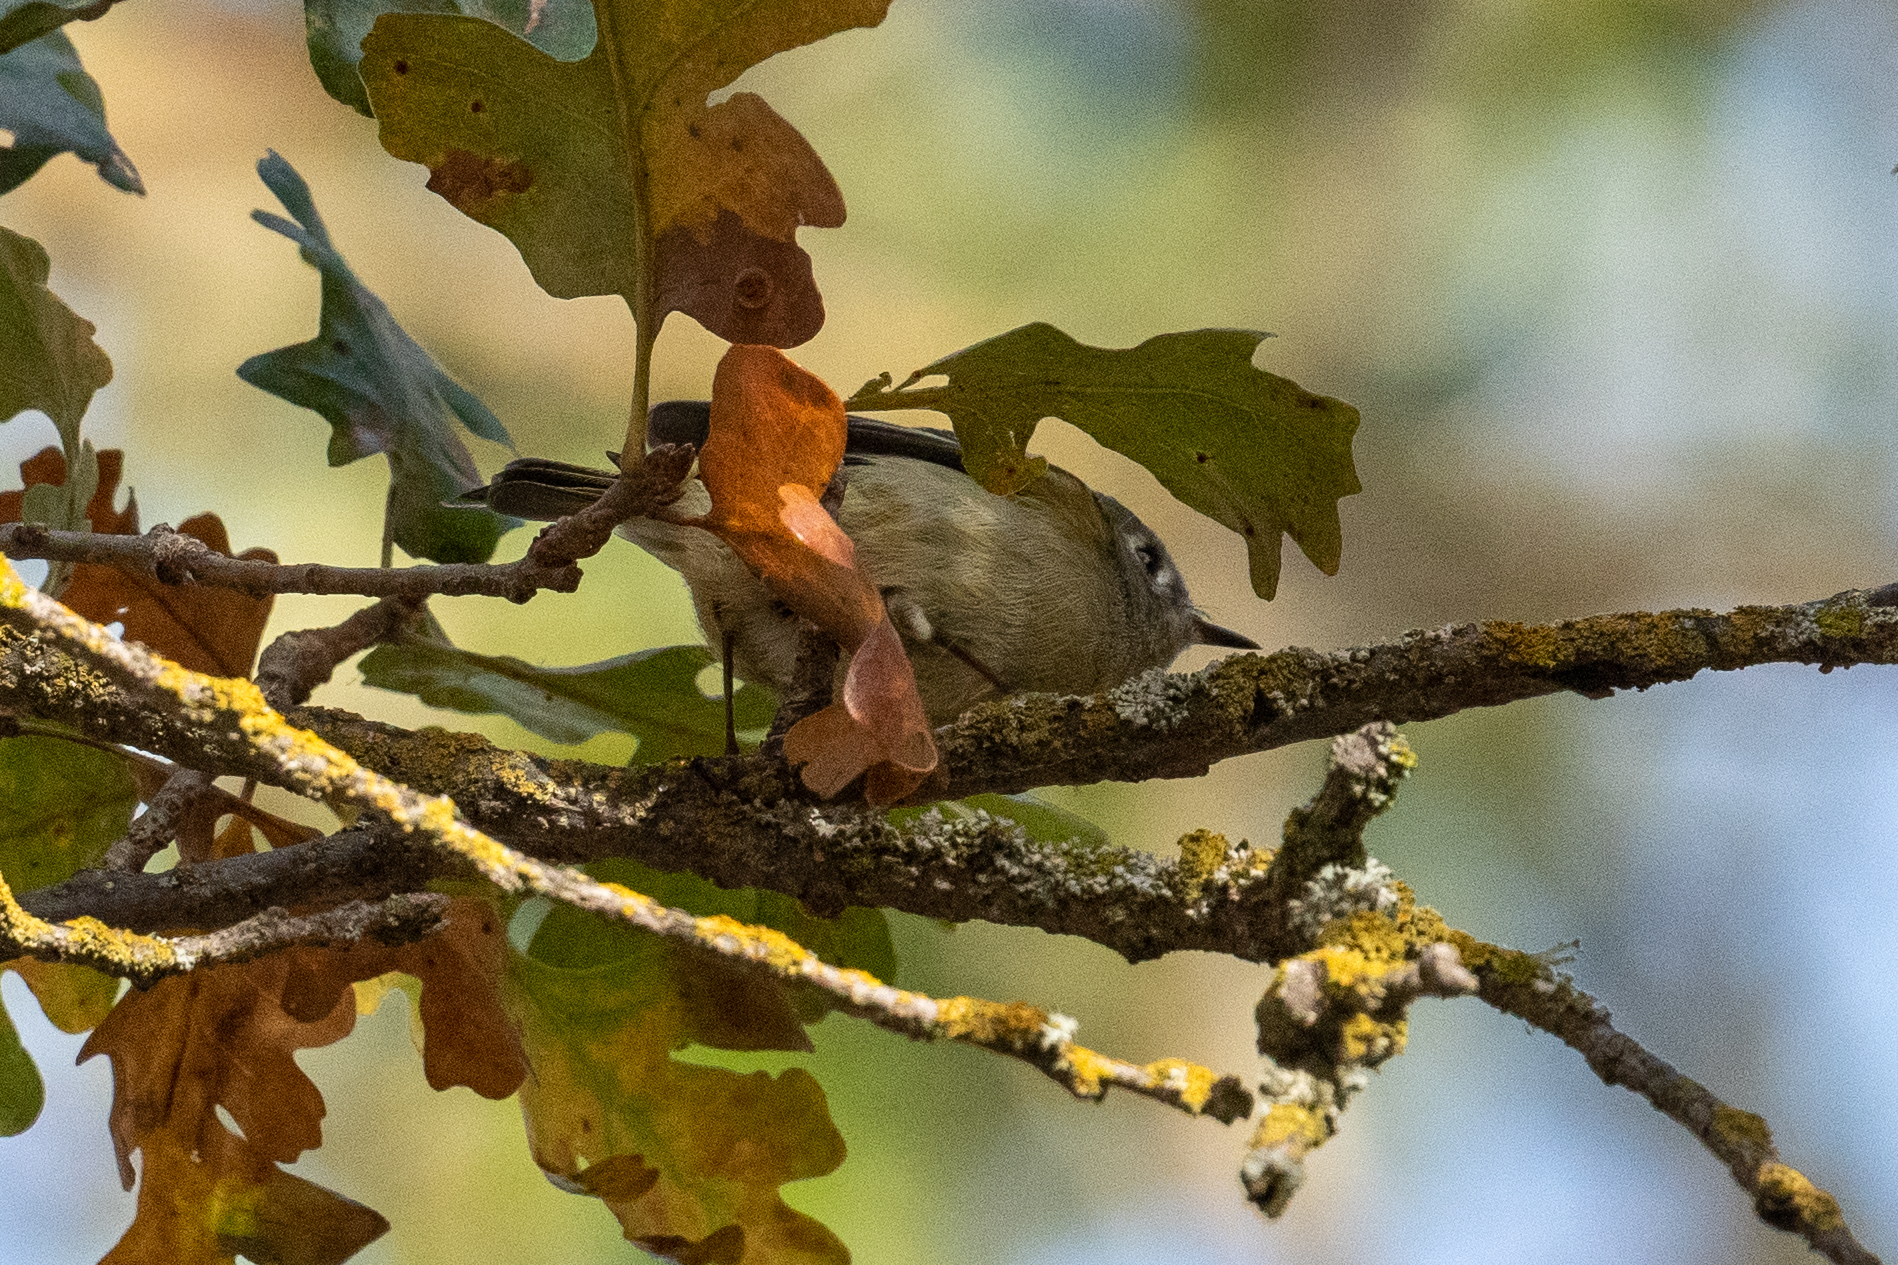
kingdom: Animalia
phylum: Chordata
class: Aves
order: Passeriformes
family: Regulidae
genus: Regulus
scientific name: Regulus calendula
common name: Ruby-crowned kinglet
